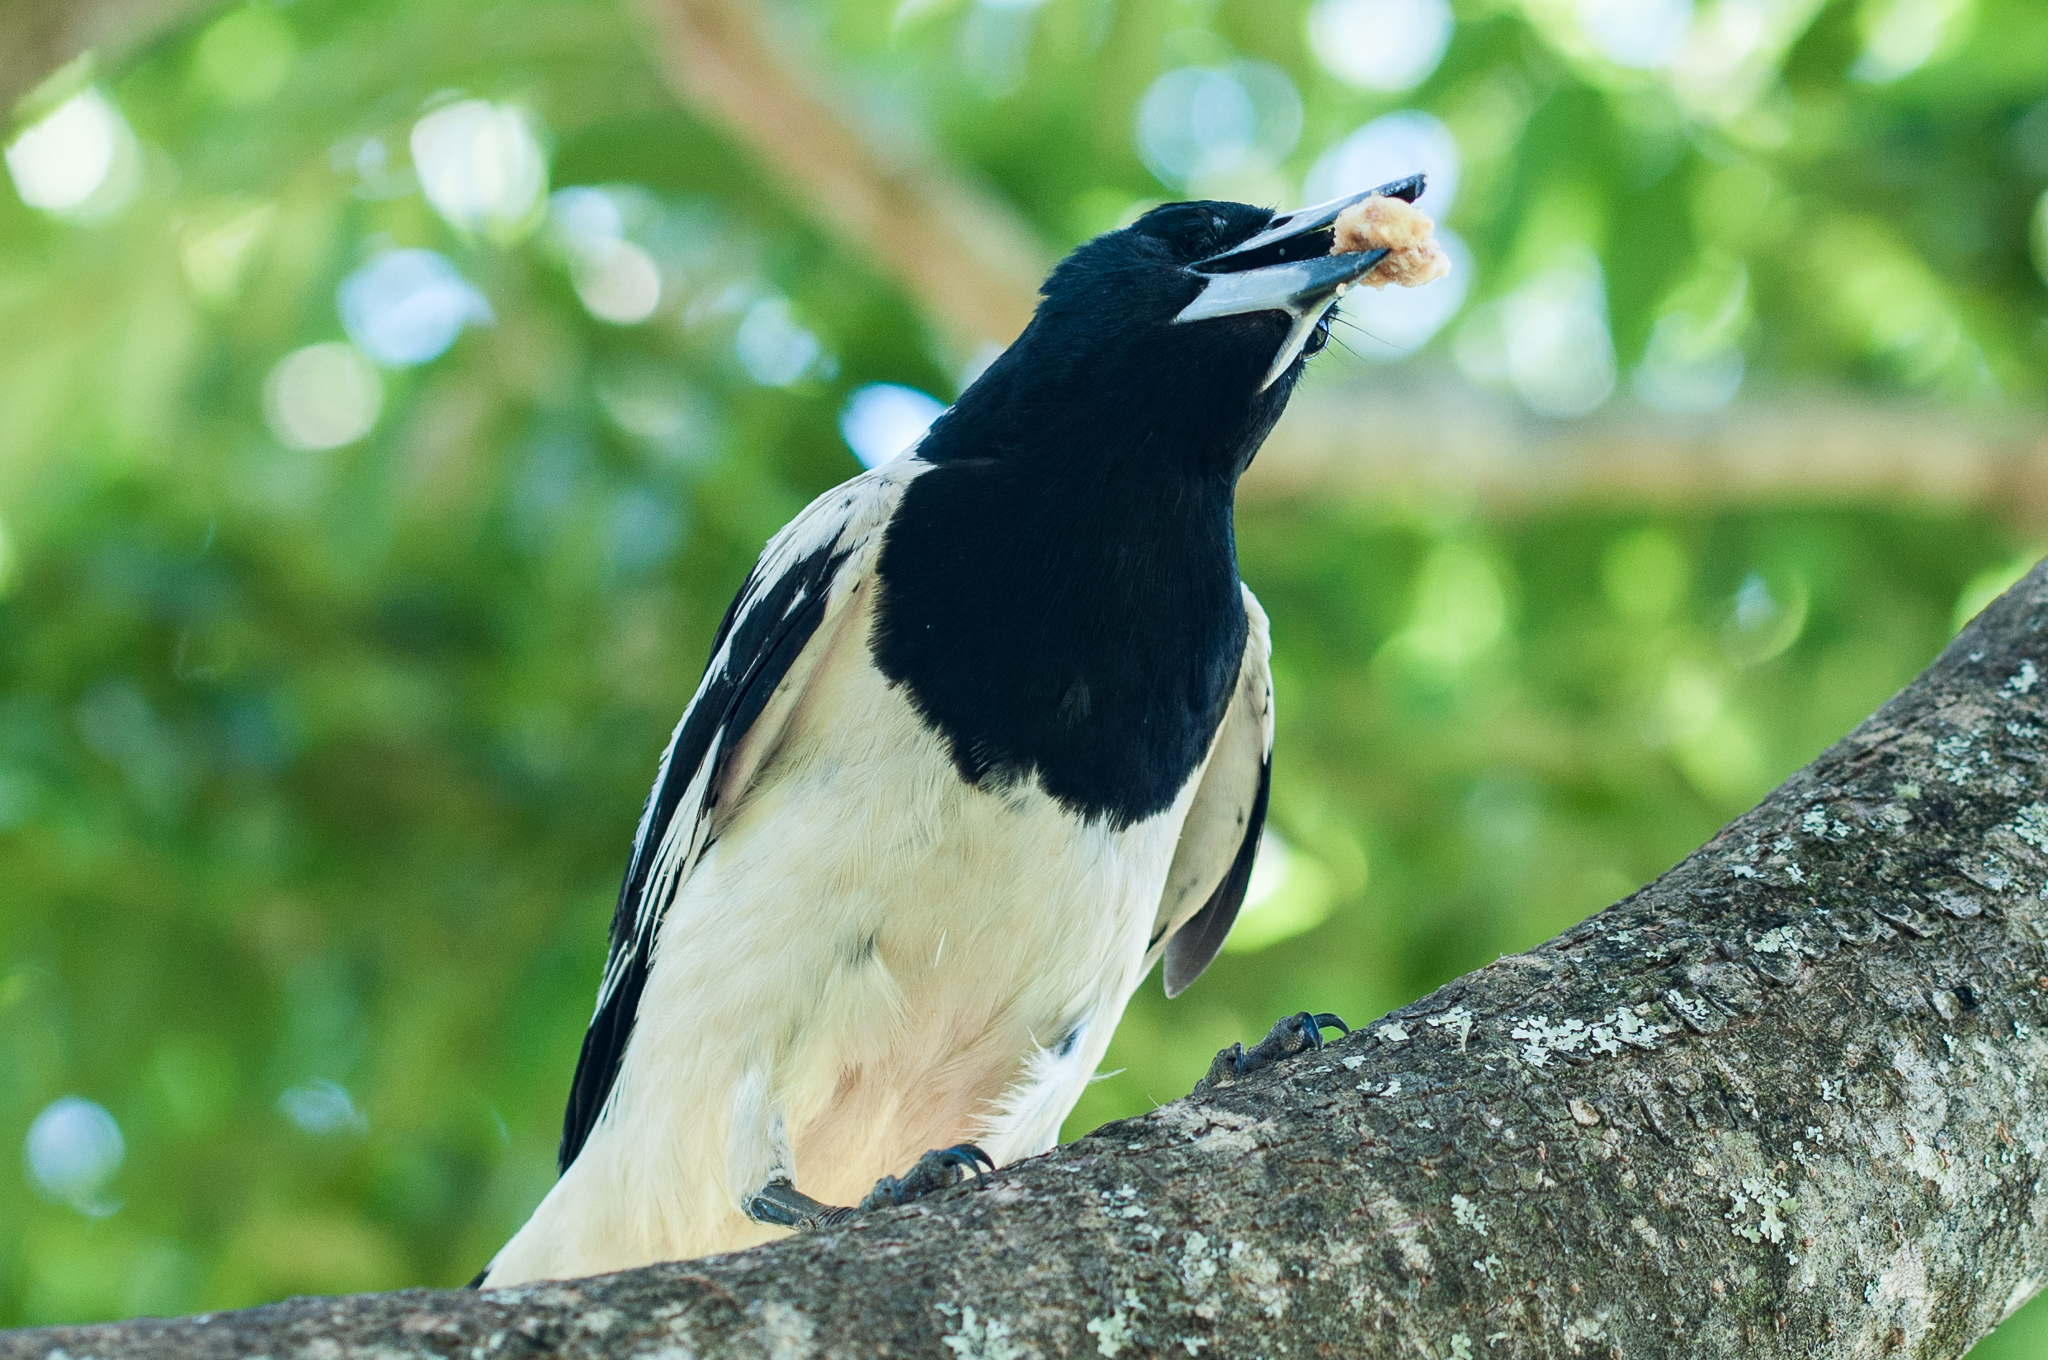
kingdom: Animalia
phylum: Chordata
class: Aves
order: Passeriformes
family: Cracticidae
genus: Cracticus
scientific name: Cracticus nigrogularis
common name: Pied butcherbird
